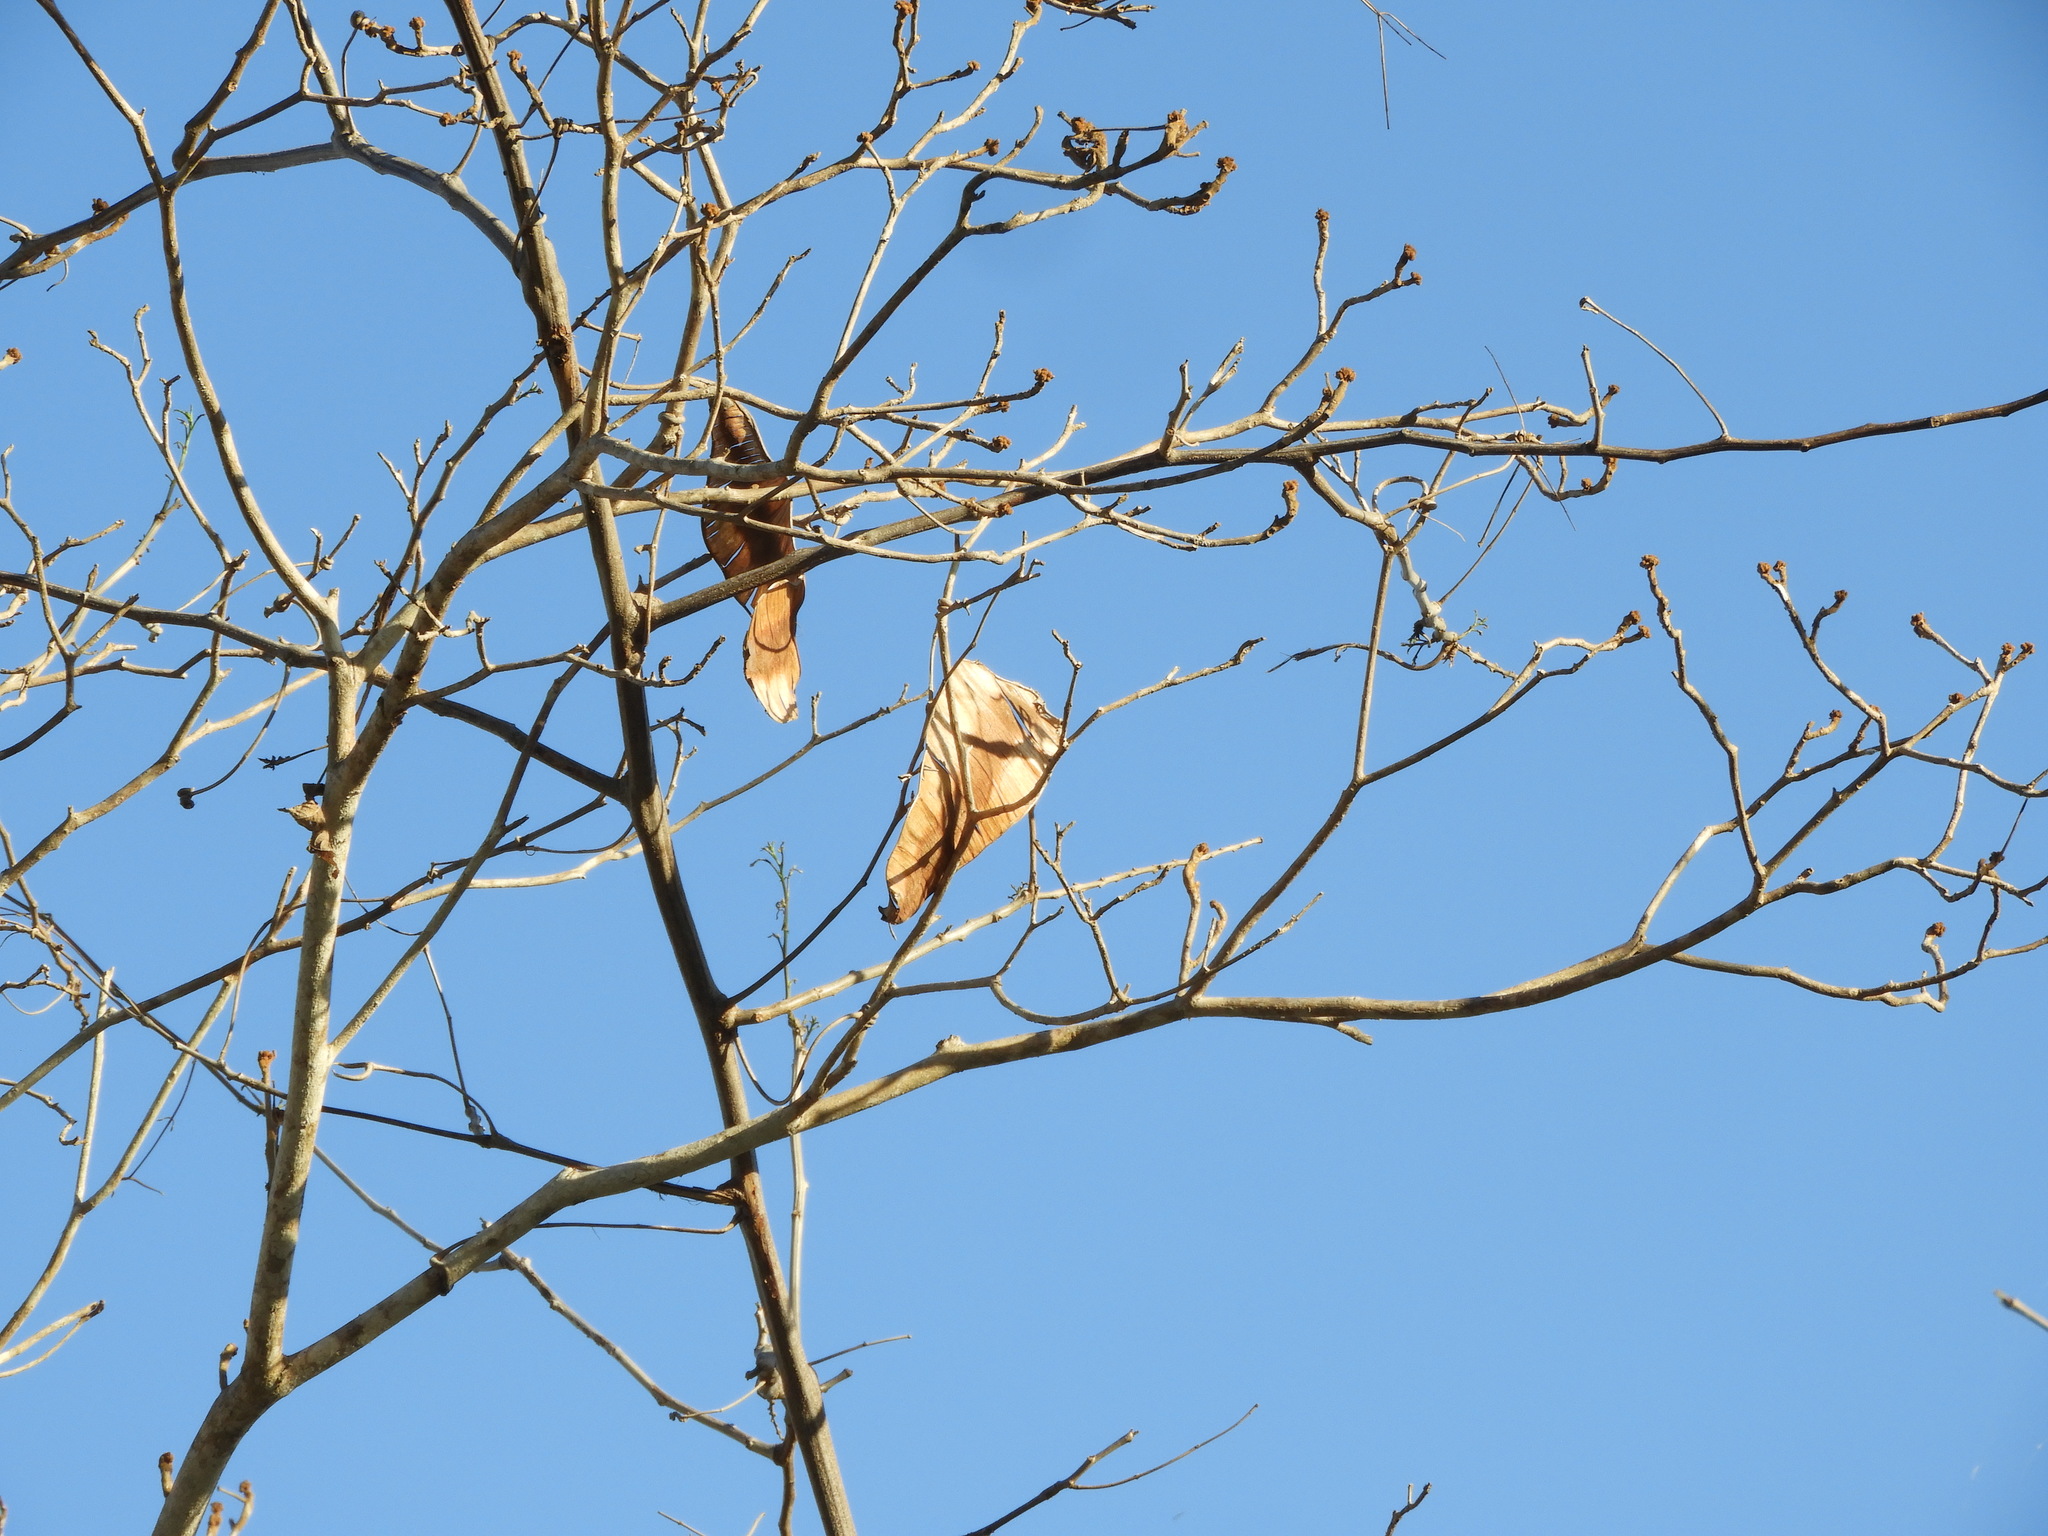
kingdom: Plantae
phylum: Tracheophyta
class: Magnoliopsida
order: Fabales
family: Fabaceae
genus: Entada
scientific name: Entada polystachya
